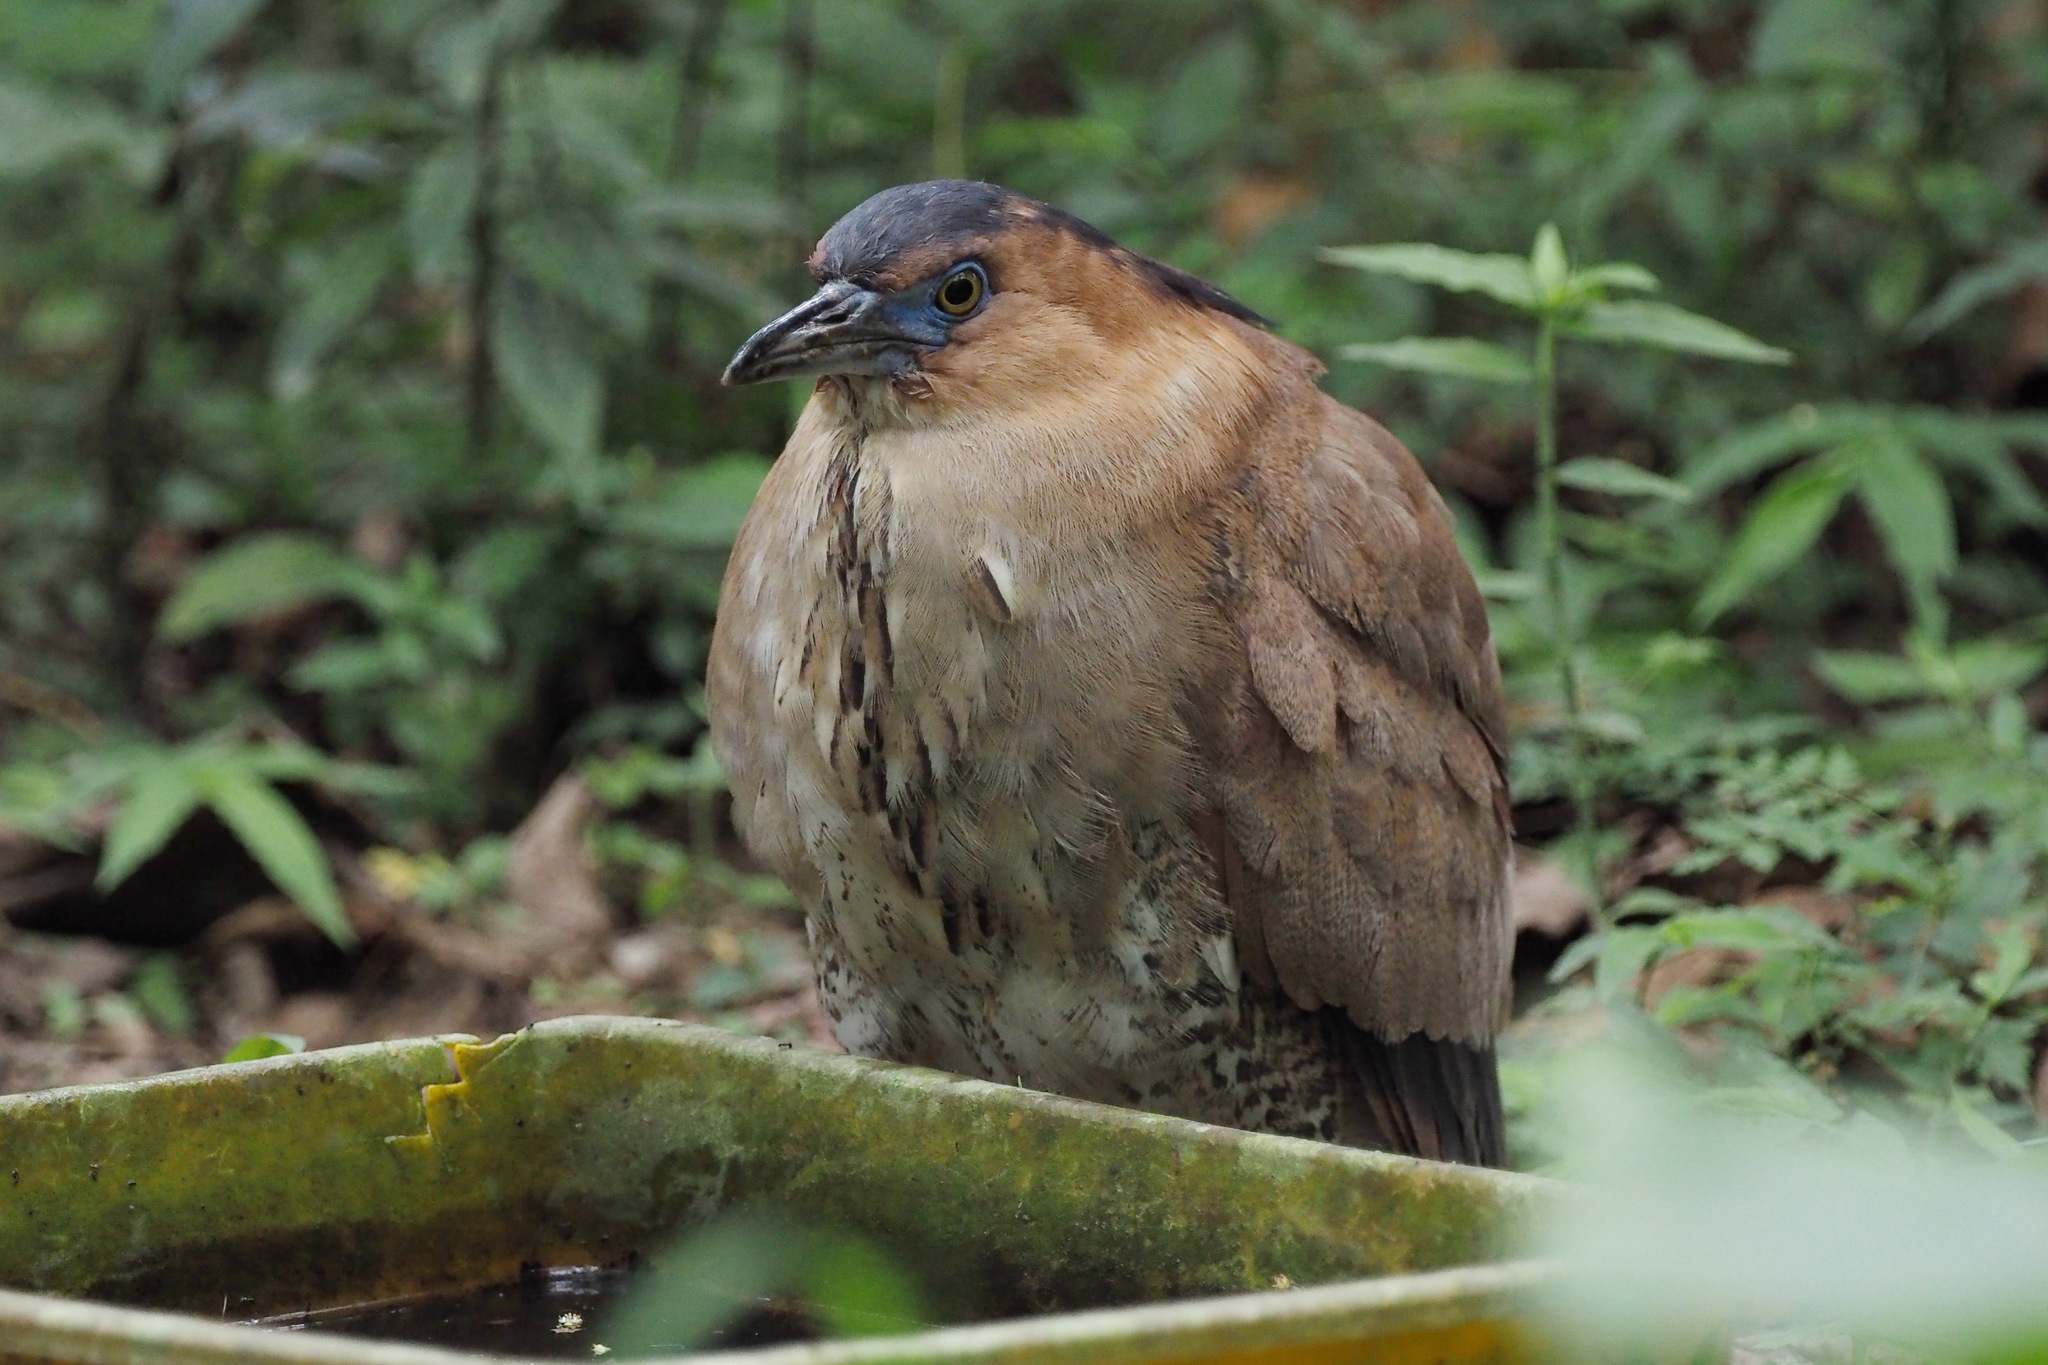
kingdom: Animalia
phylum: Chordata
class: Aves
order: Pelecaniformes
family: Ardeidae
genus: Gorsachius
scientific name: Gorsachius melanolophus
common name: Malayan night heron
